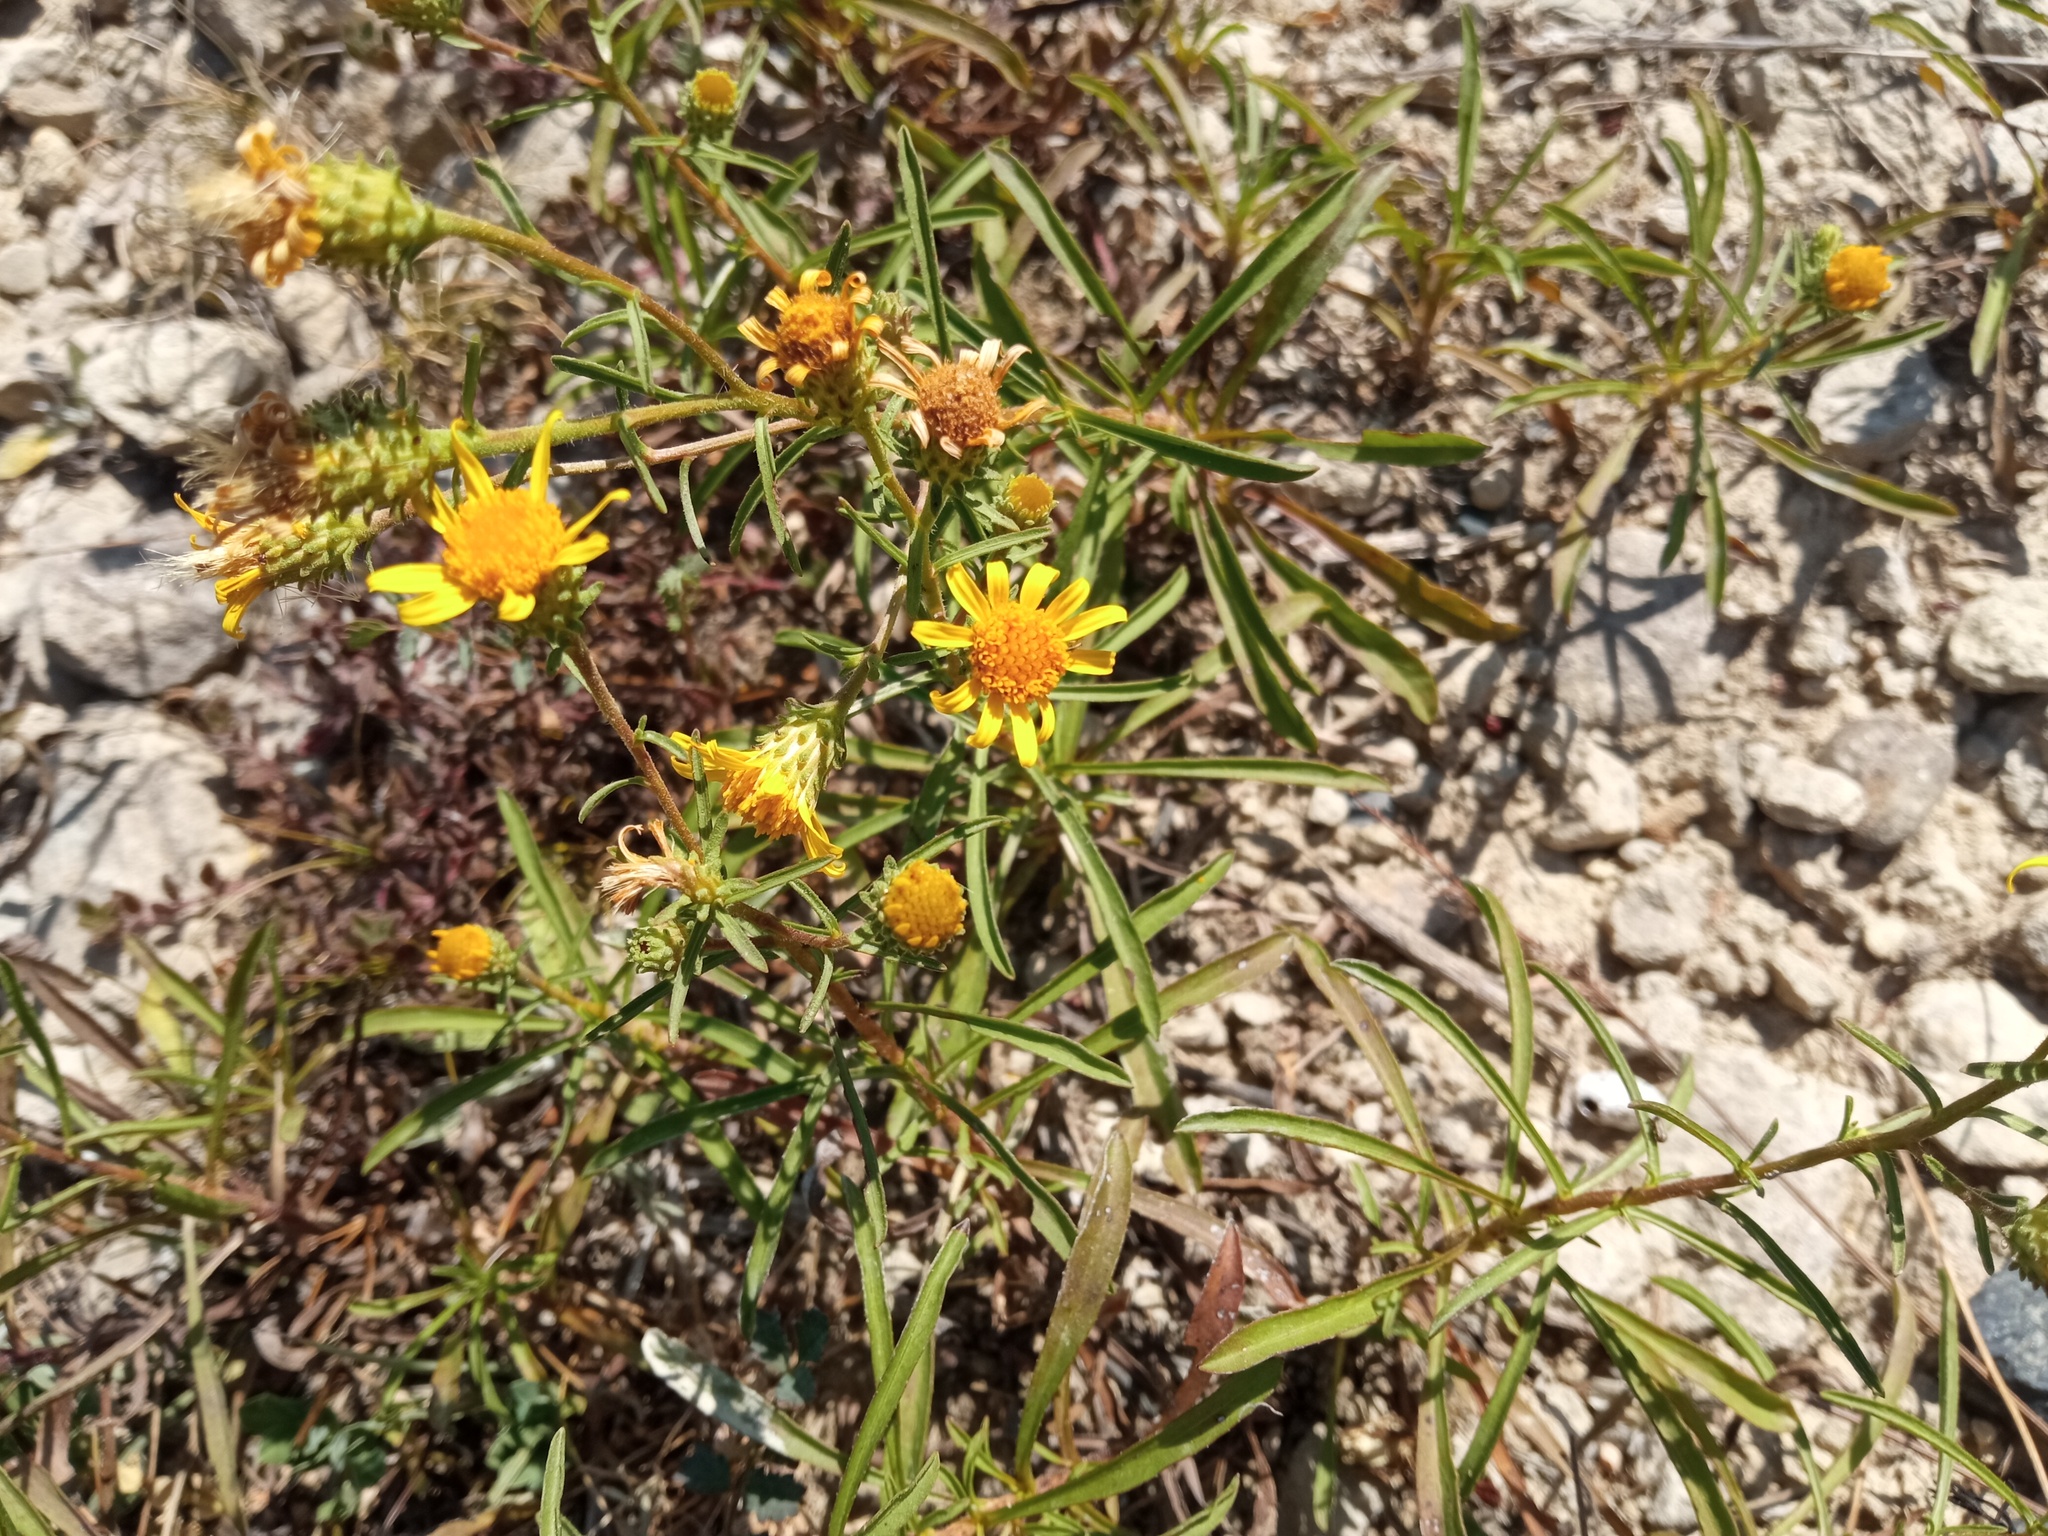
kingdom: Plantae
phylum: Tracheophyta
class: Magnoliopsida
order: Asterales
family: Asteraceae
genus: Jasonia
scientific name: Jasonia tuberosa
